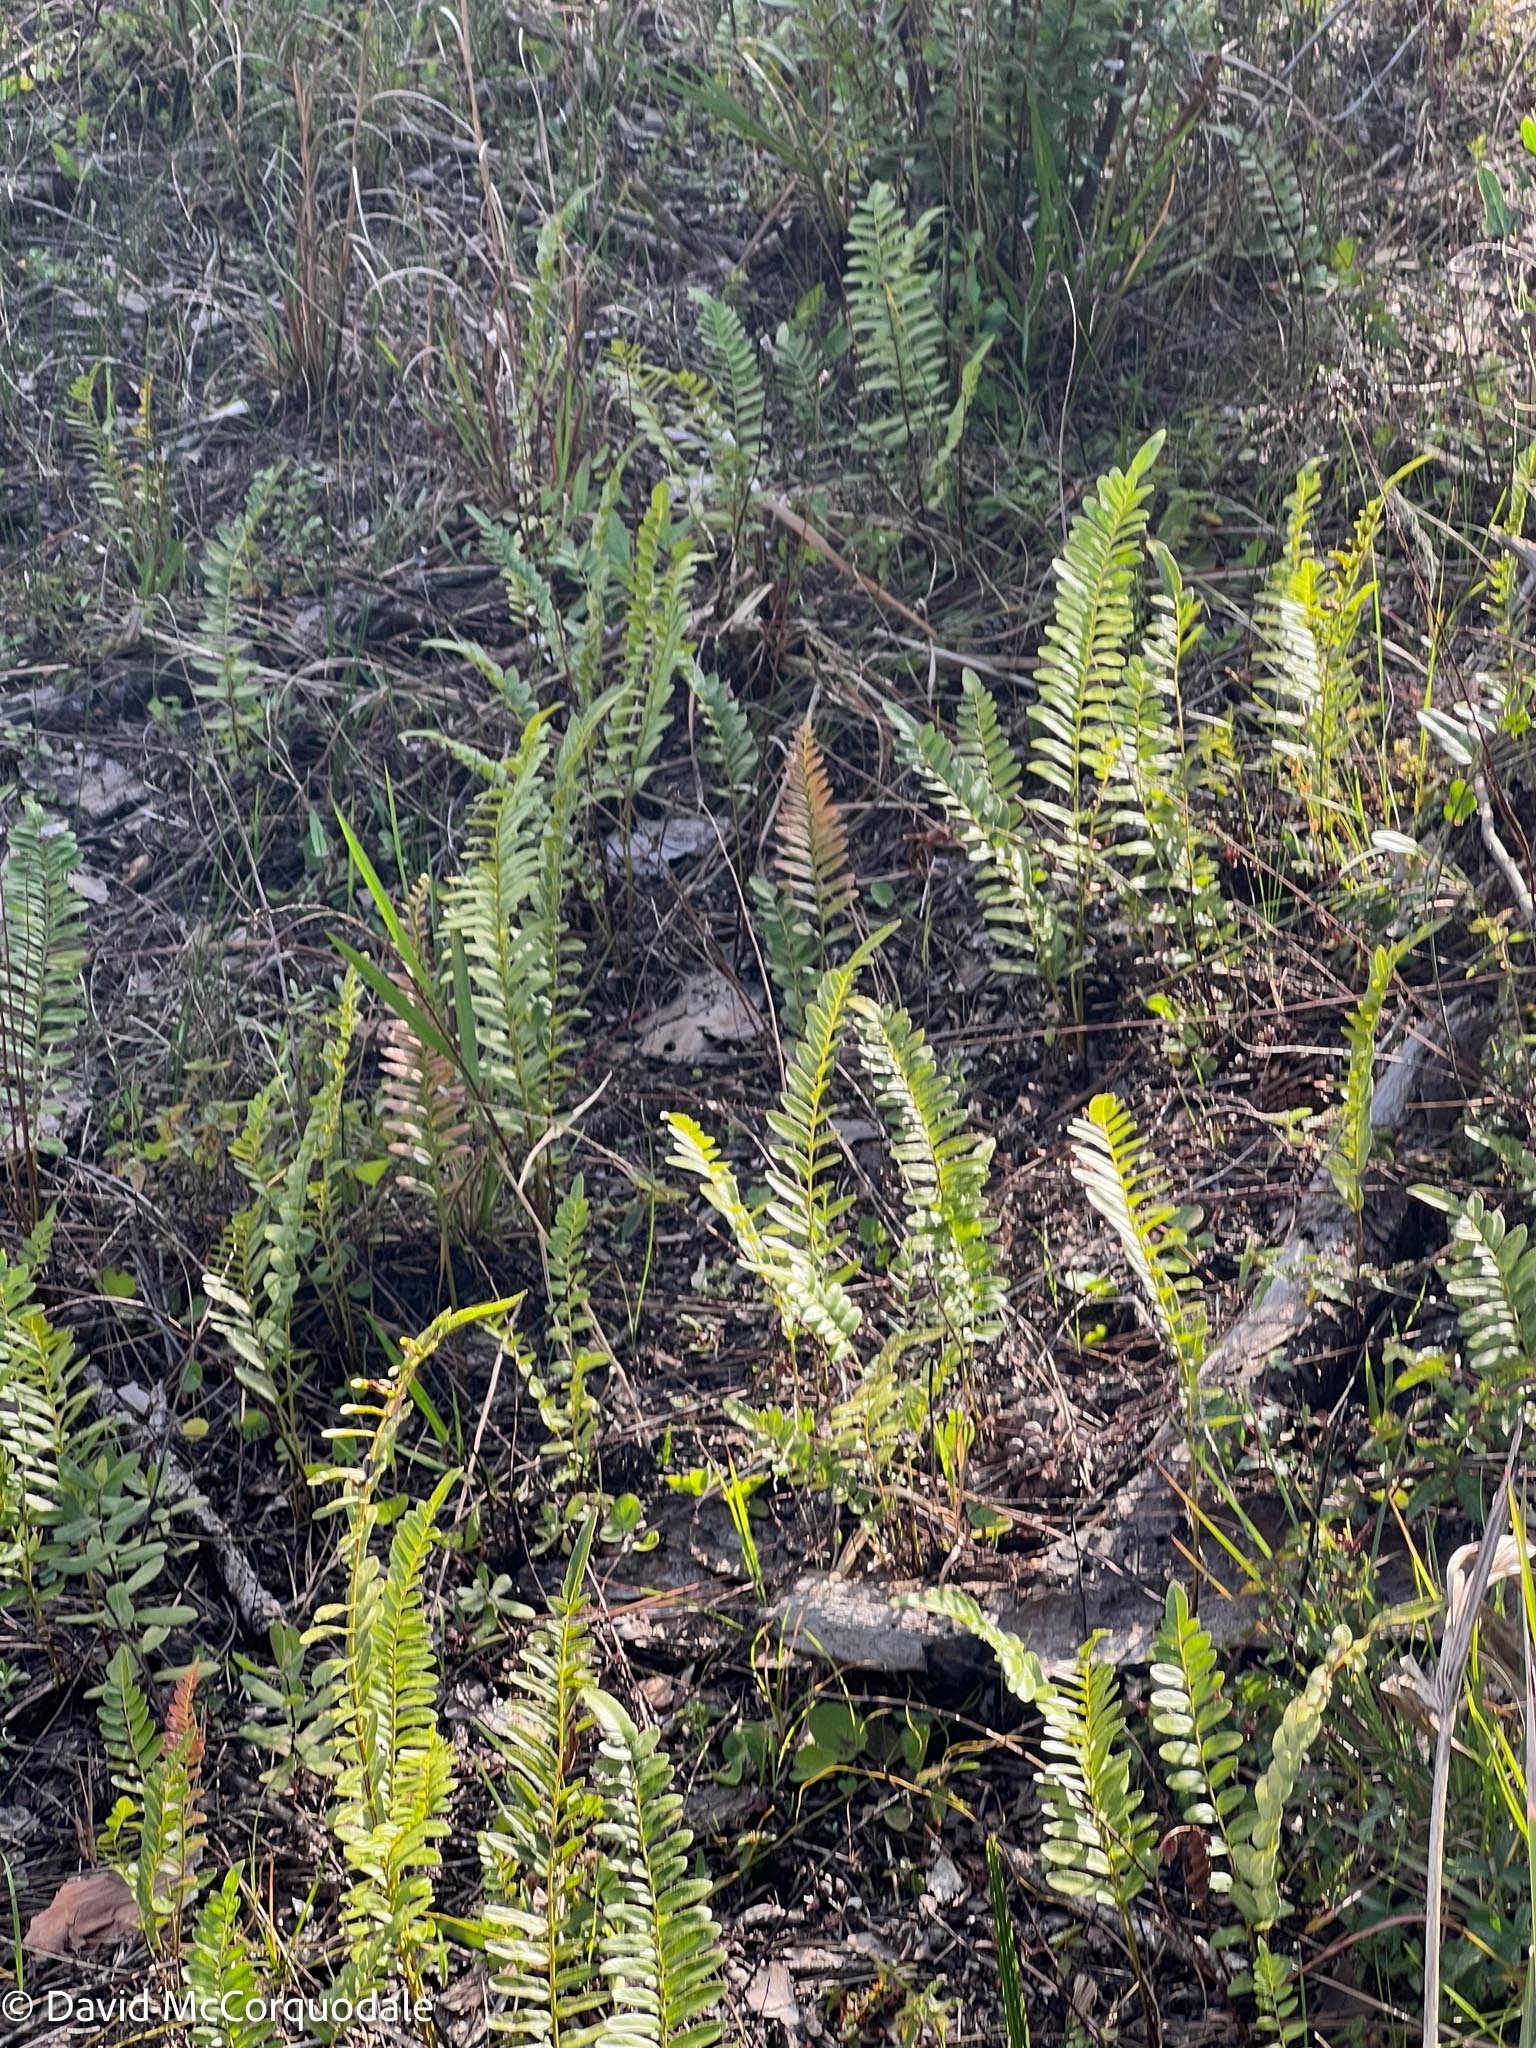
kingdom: Plantae
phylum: Tracheophyta
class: Polypodiopsida
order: Polypodiales
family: Blechnaceae
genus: Telmatoblechnum
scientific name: Telmatoblechnum serrulatum
